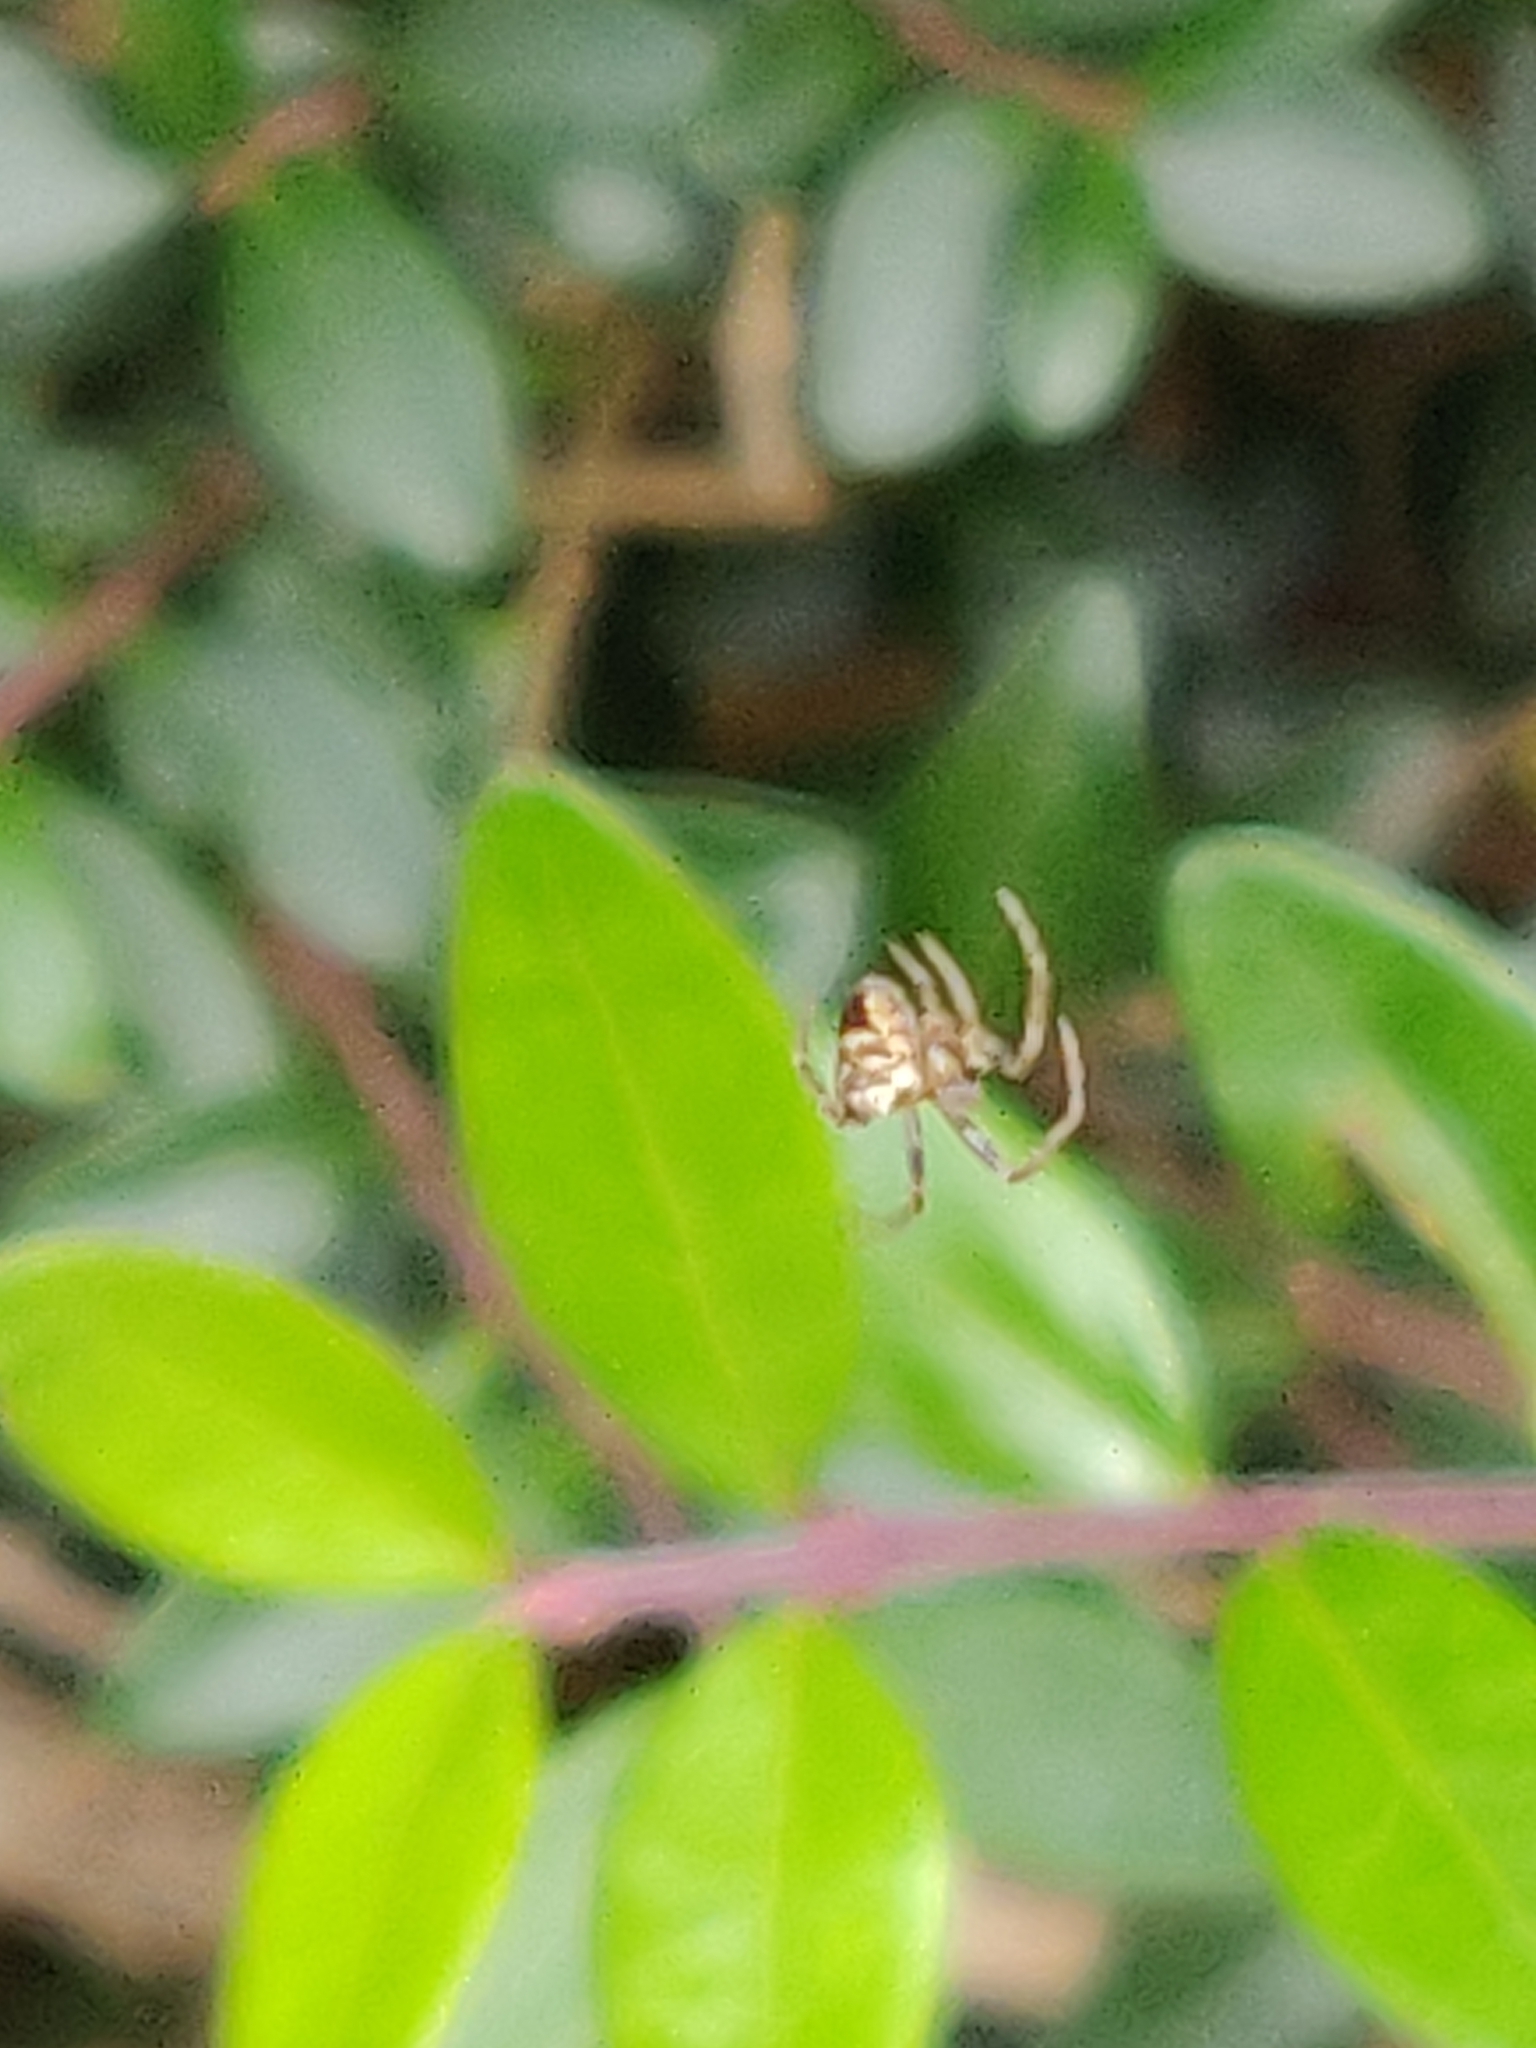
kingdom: Animalia
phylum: Arthropoda
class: Arachnida
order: Araneae
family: Araneidae
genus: Zilla
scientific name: Zilla diodia
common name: Zilla diodia
